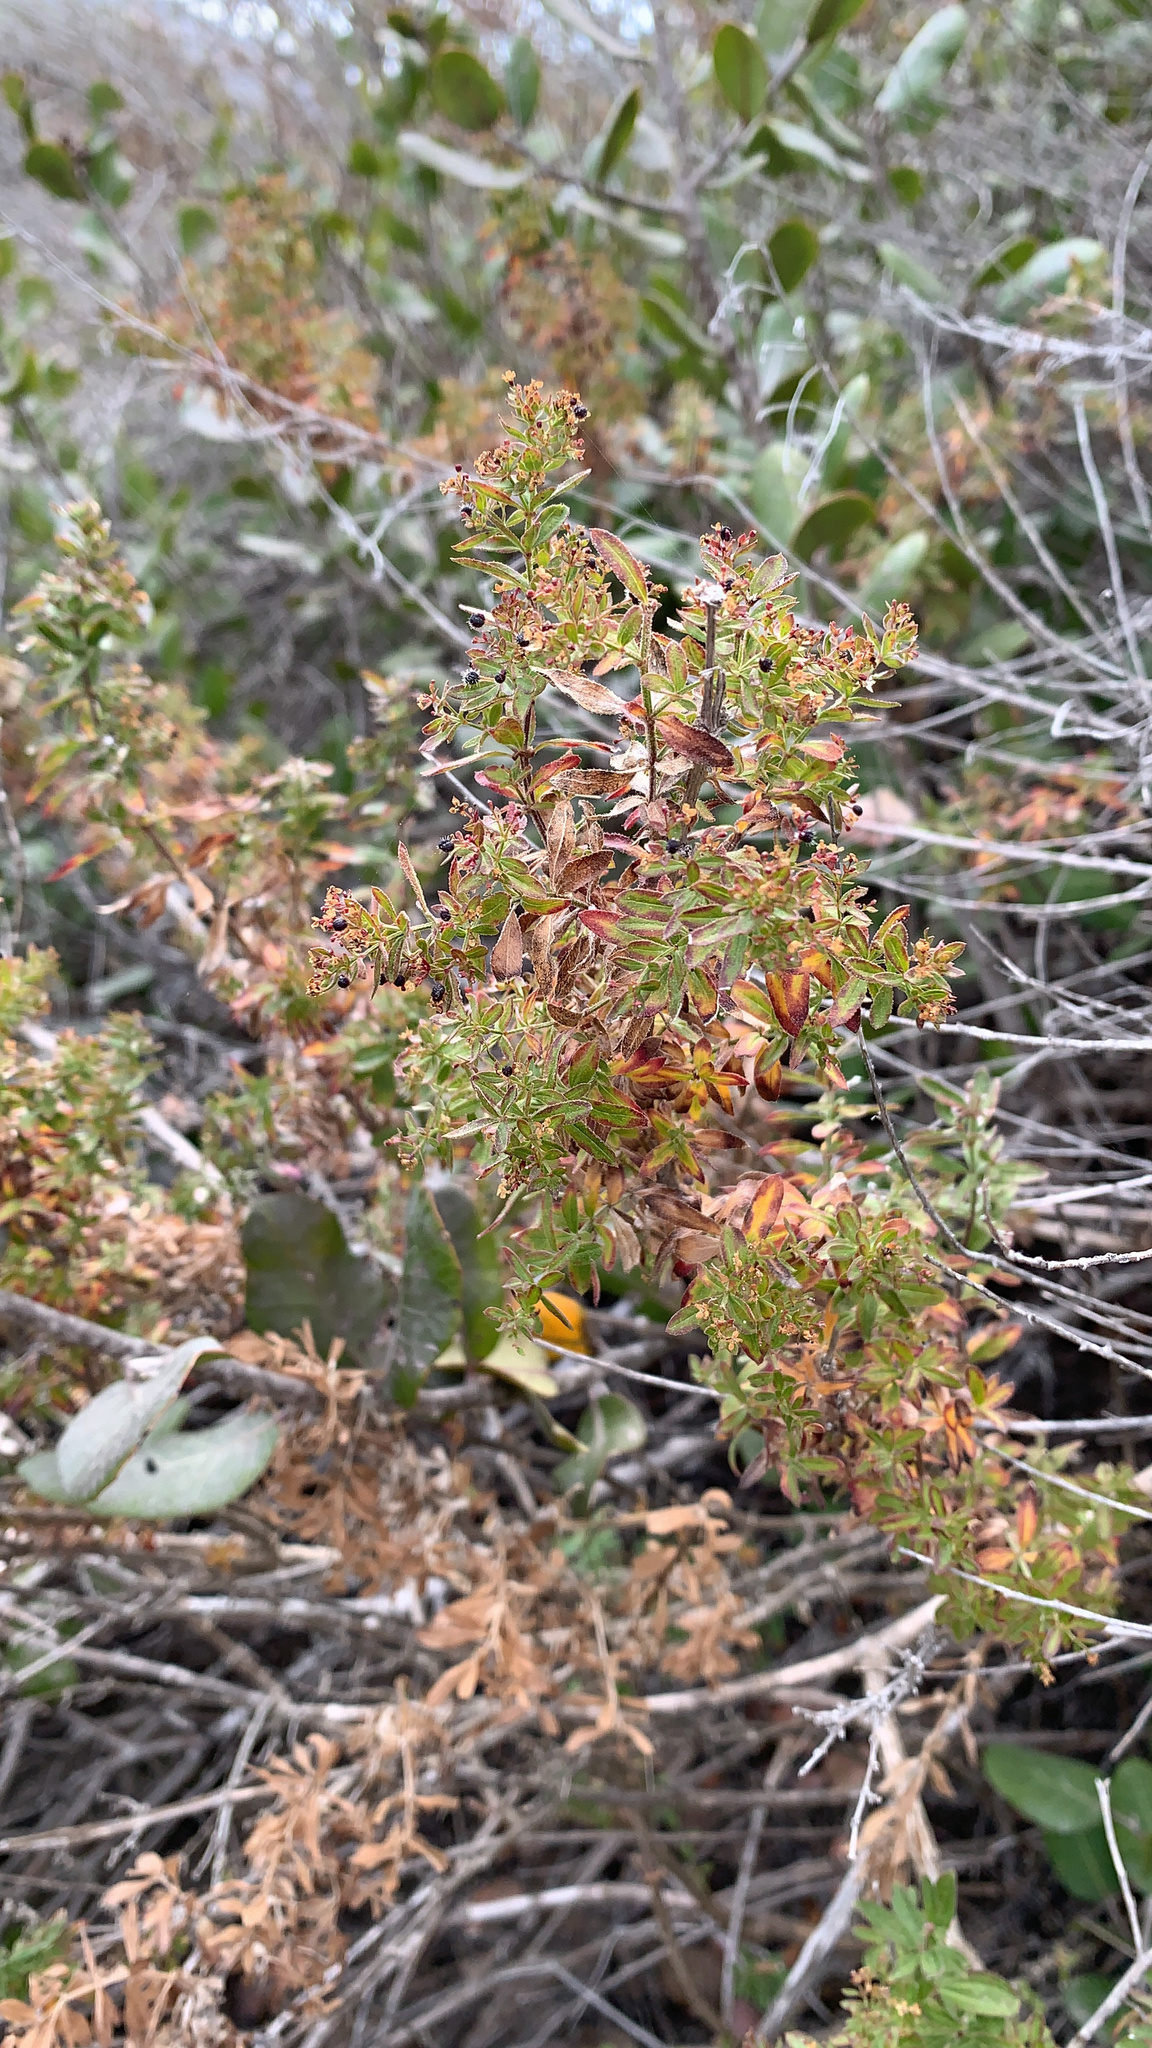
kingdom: Plantae
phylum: Tracheophyta
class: Magnoliopsida
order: Gentianales
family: Rubiaceae
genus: Galium
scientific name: Galium catalinense
